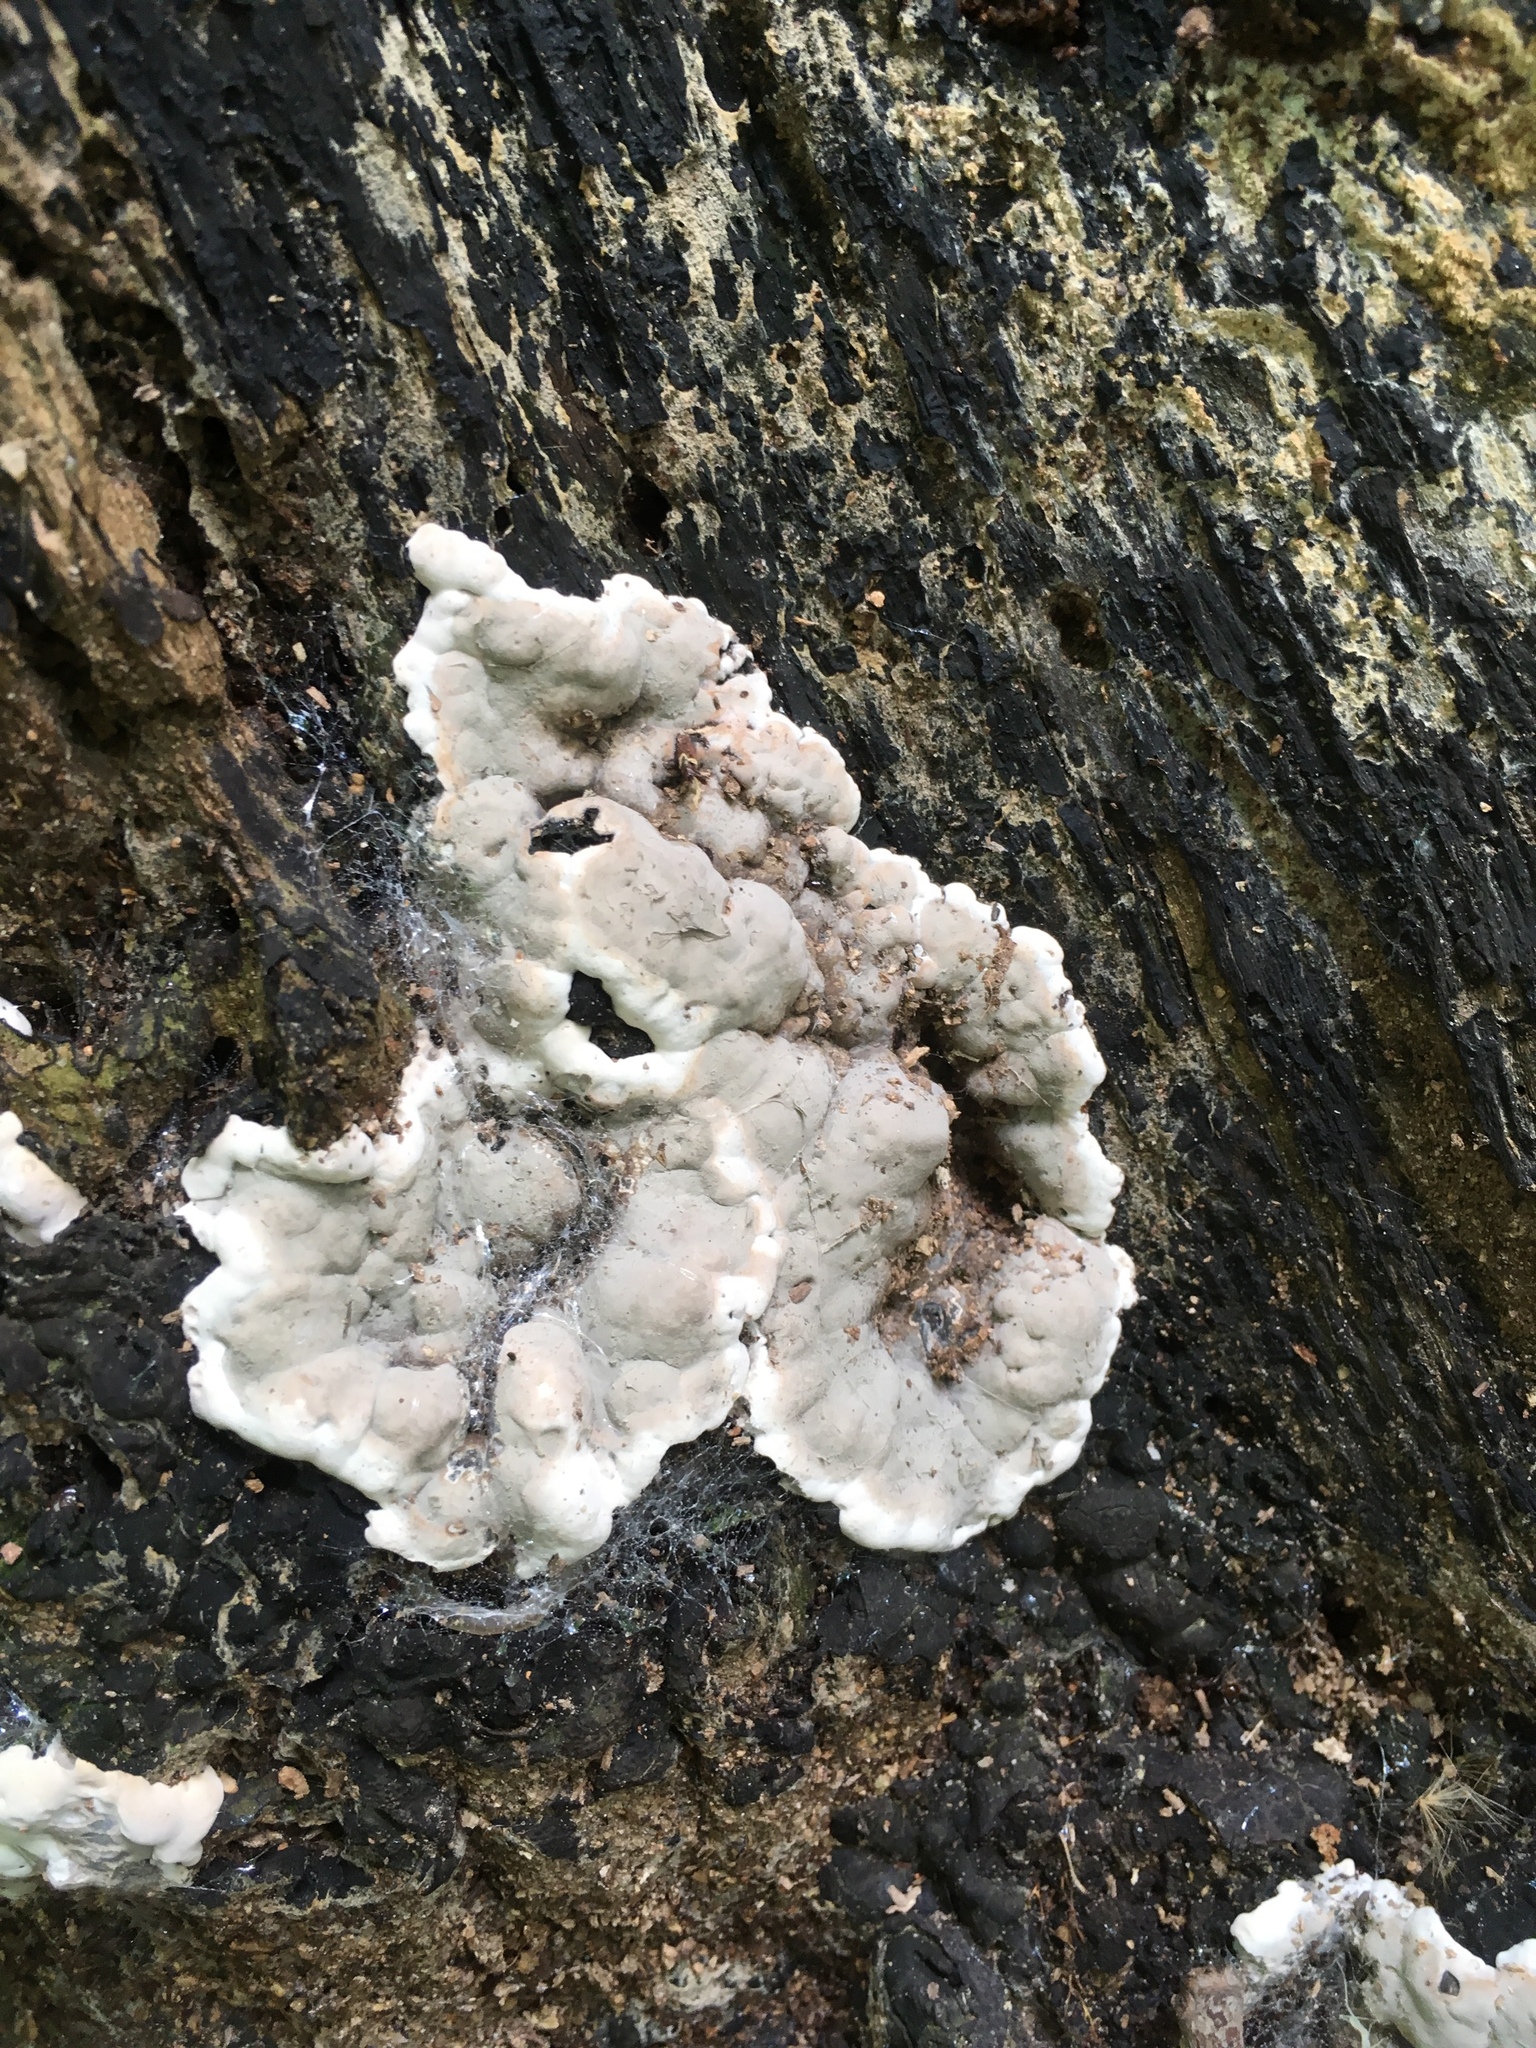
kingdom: Fungi
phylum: Ascomycota
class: Sordariomycetes
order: Xylariales
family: Xylariaceae
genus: Kretzschmaria
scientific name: Kretzschmaria deusta
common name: Brittle cinder
